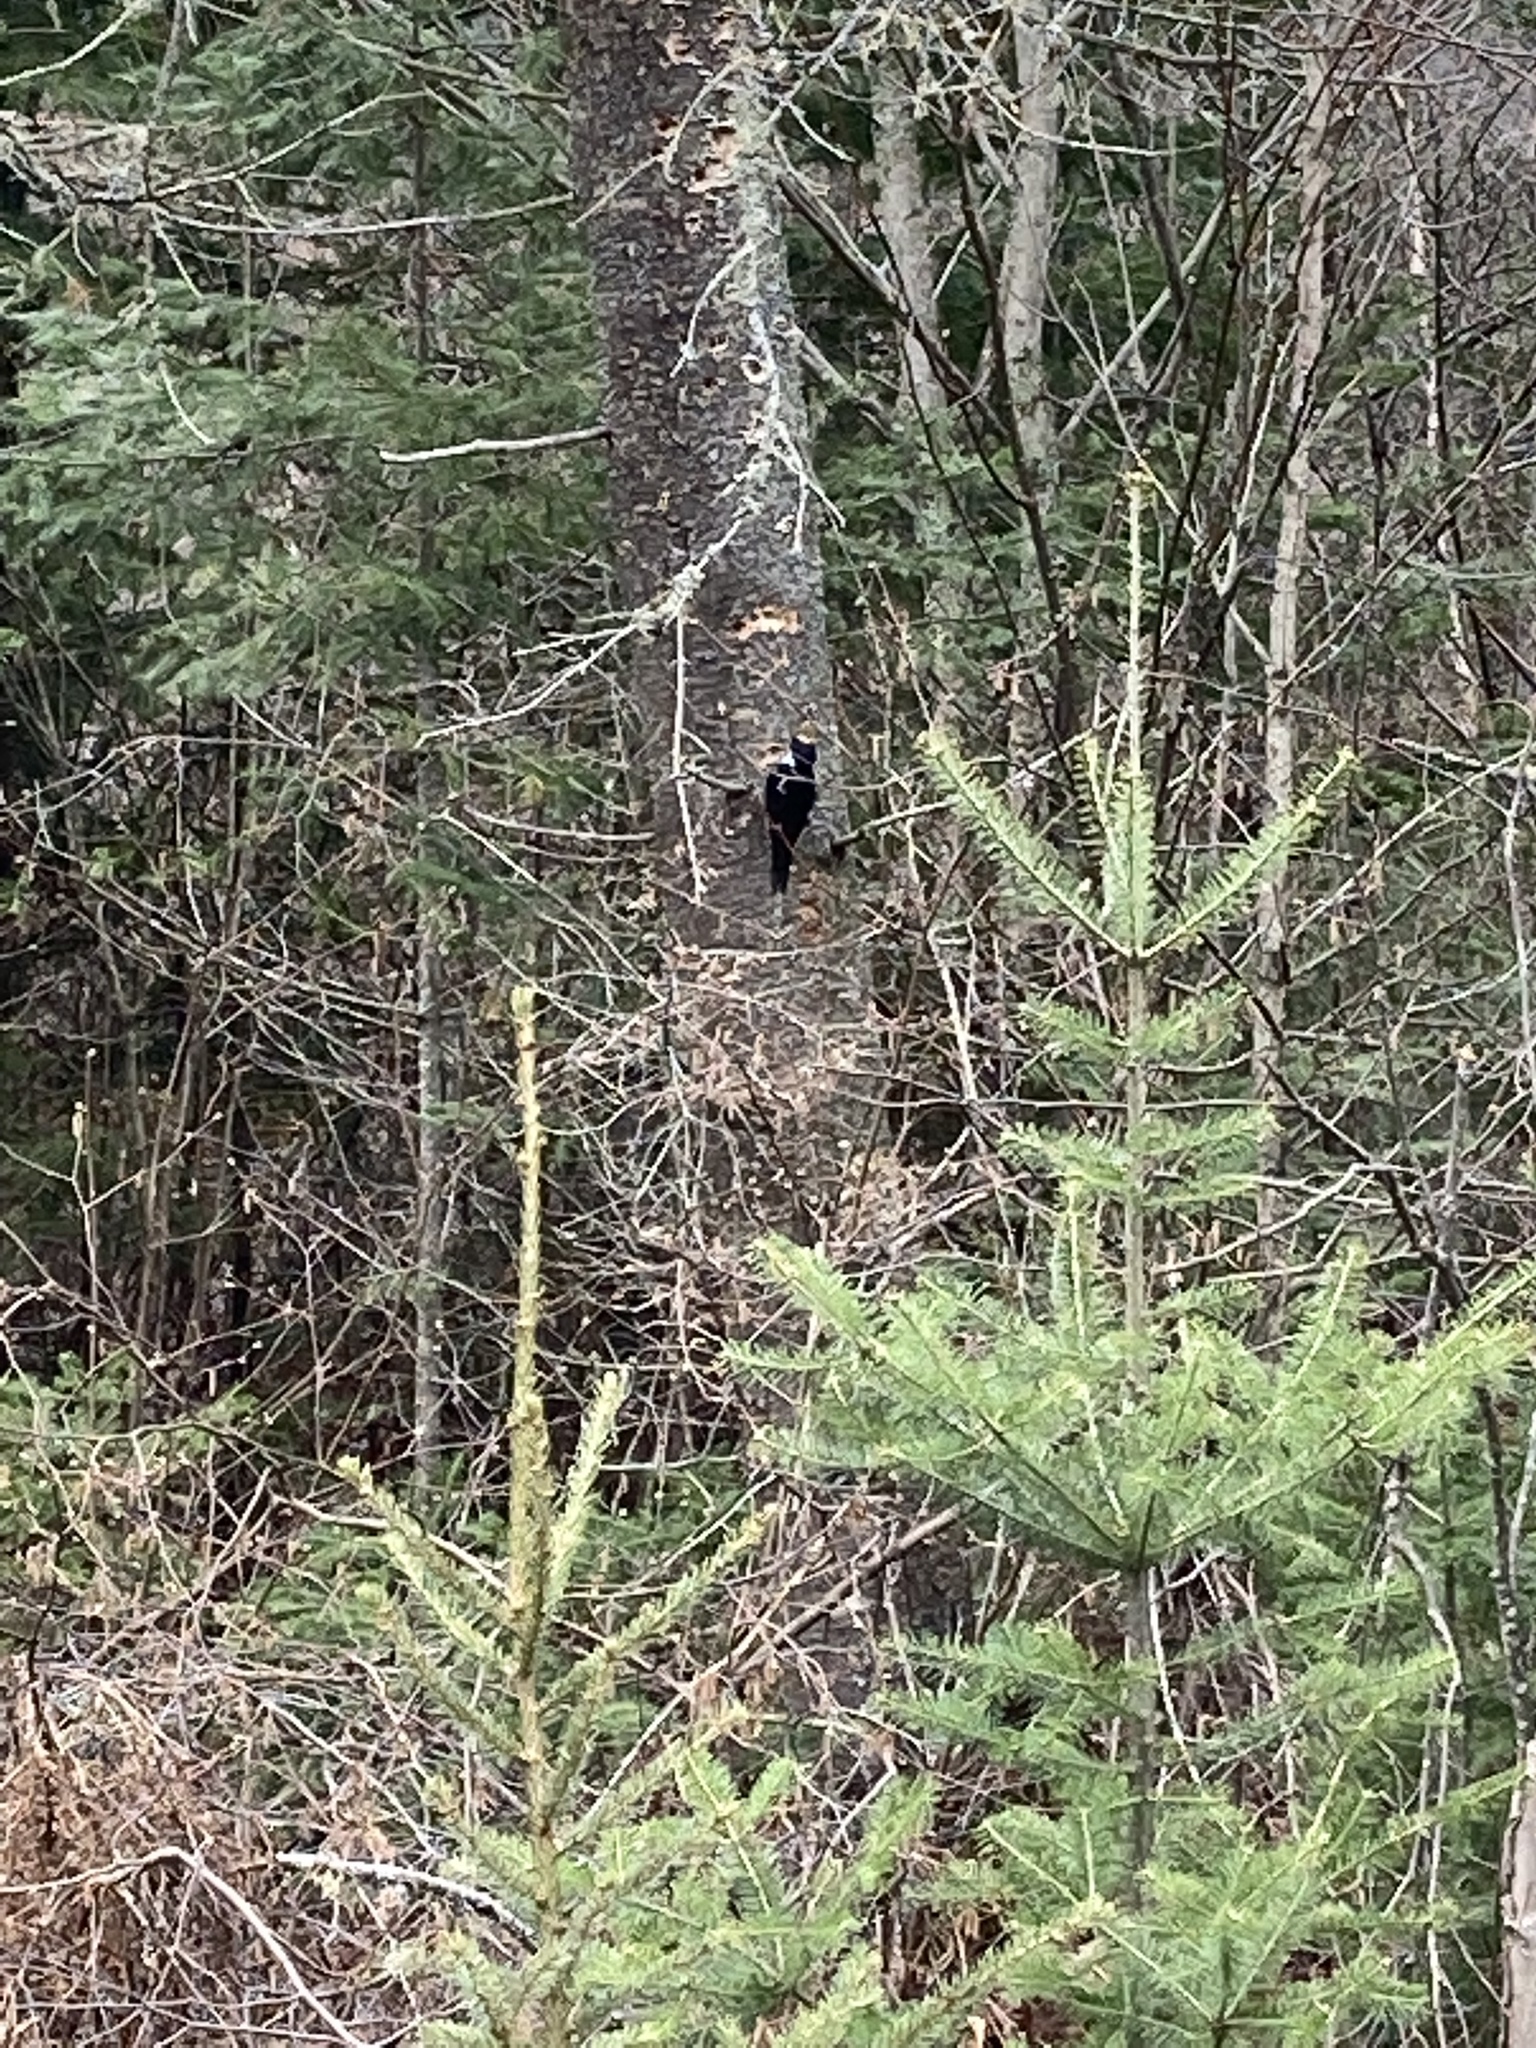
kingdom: Animalia
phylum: Chordata
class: Aves
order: Piciformes
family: Picidae
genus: Picoides
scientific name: Picoides arcticus
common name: Black-backed woodpecker
